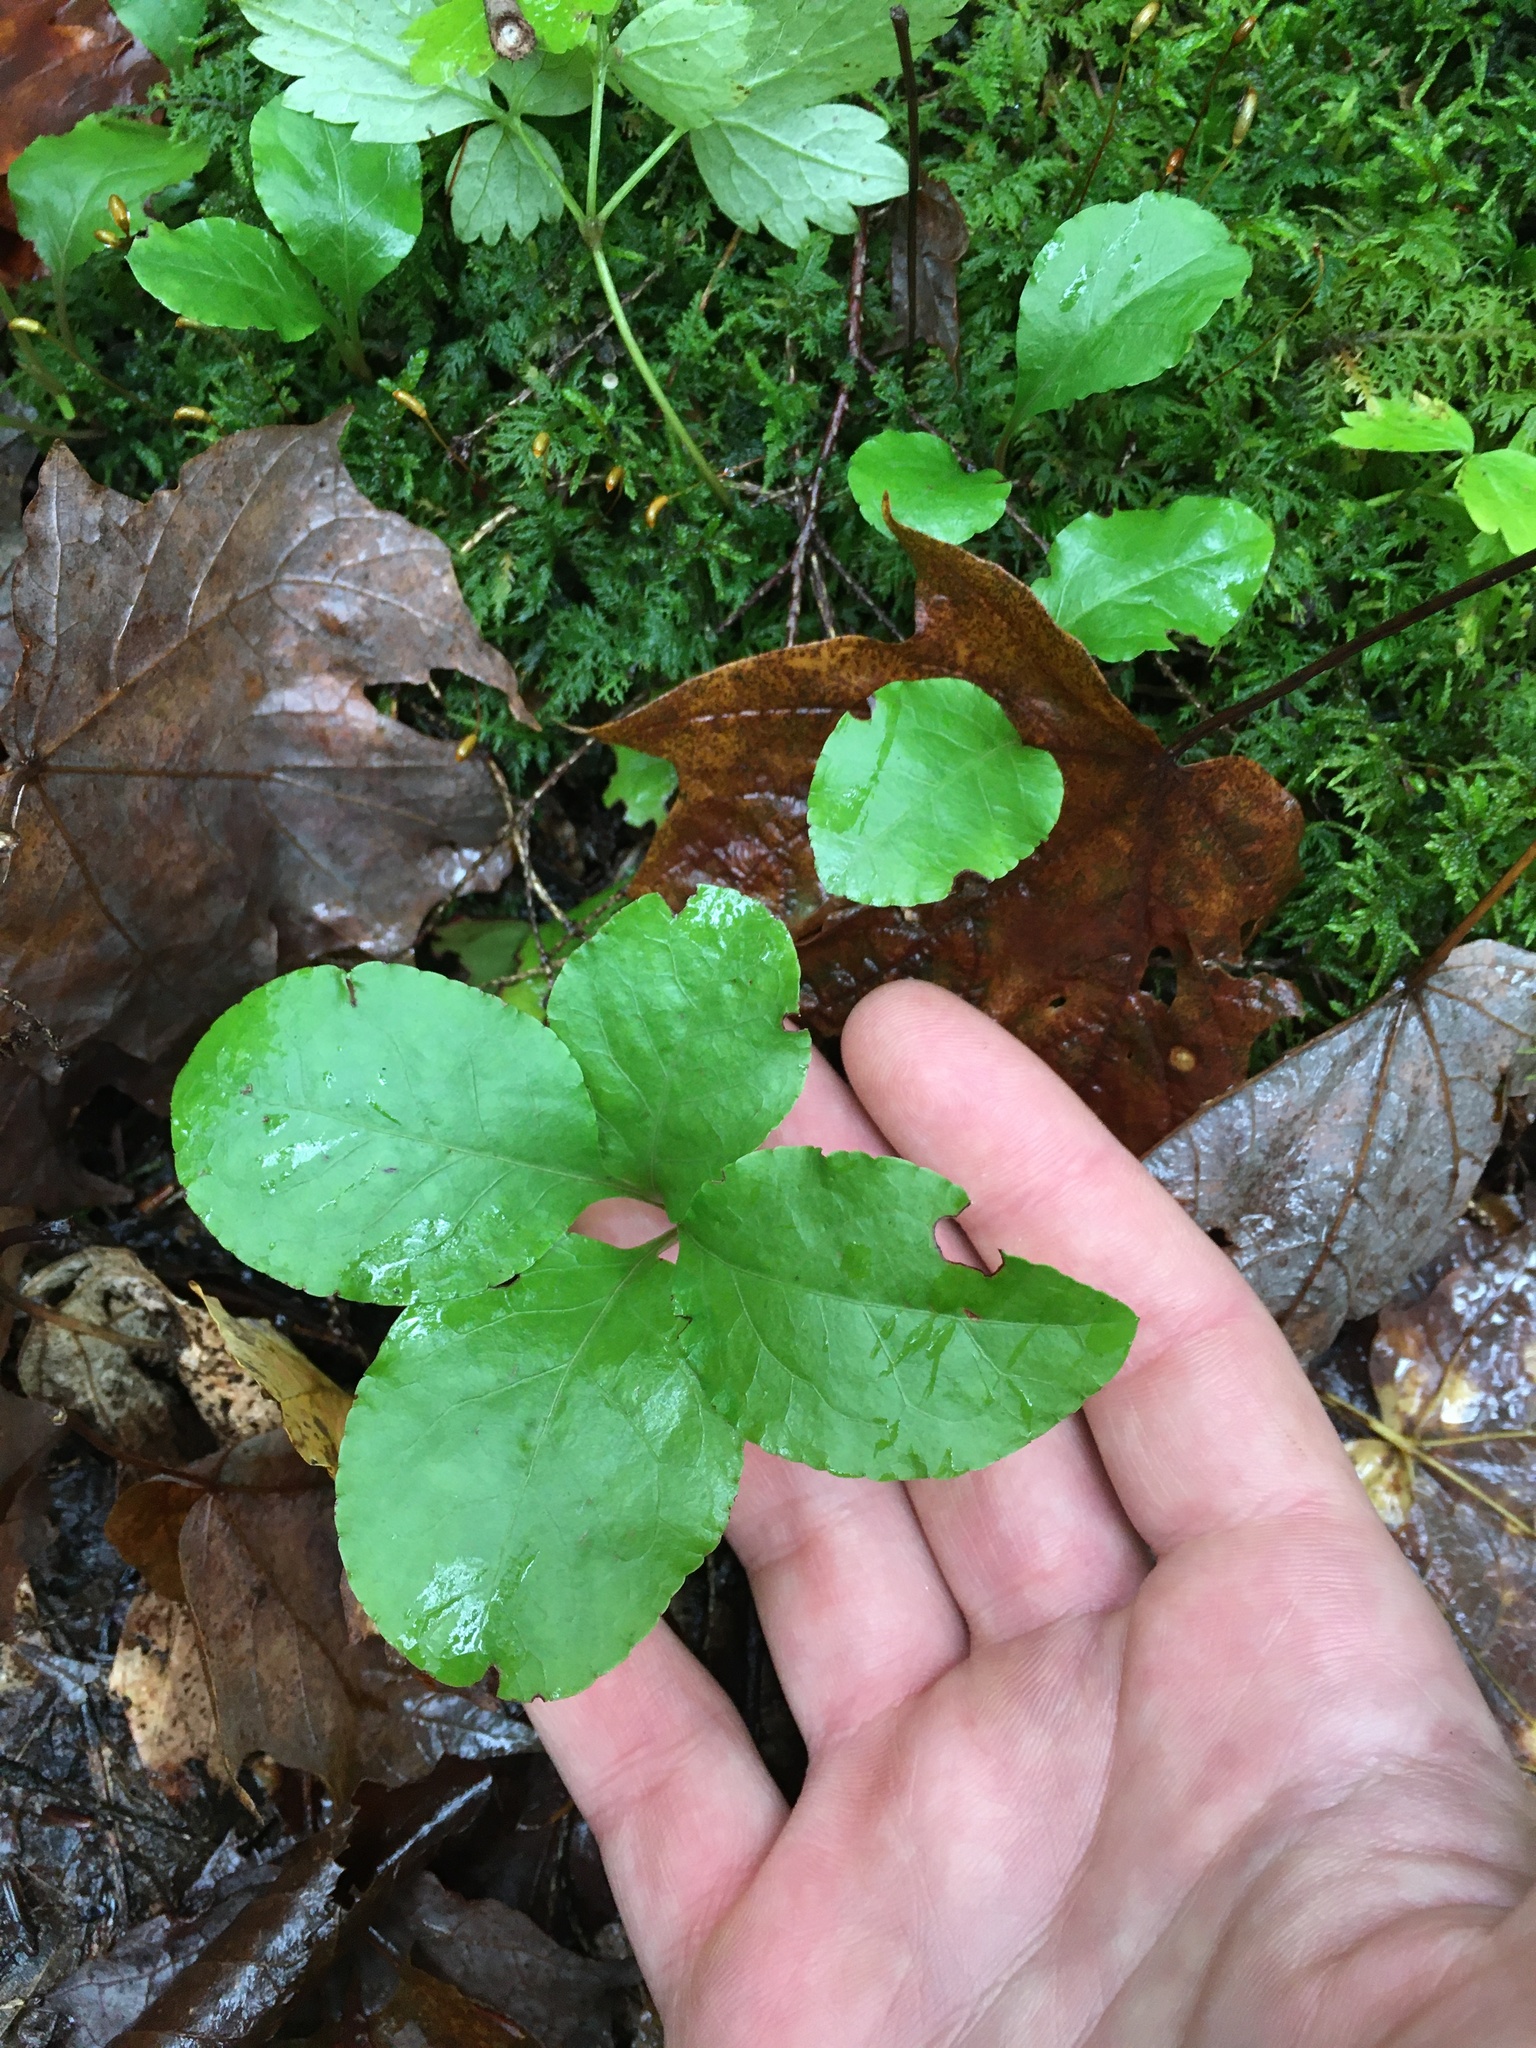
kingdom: Plantae
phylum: Tracheophyta
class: Magnoliopsida
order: Ericales
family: Ericaceae
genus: Pyrola
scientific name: Pyrola elliptica
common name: Shinleaf
